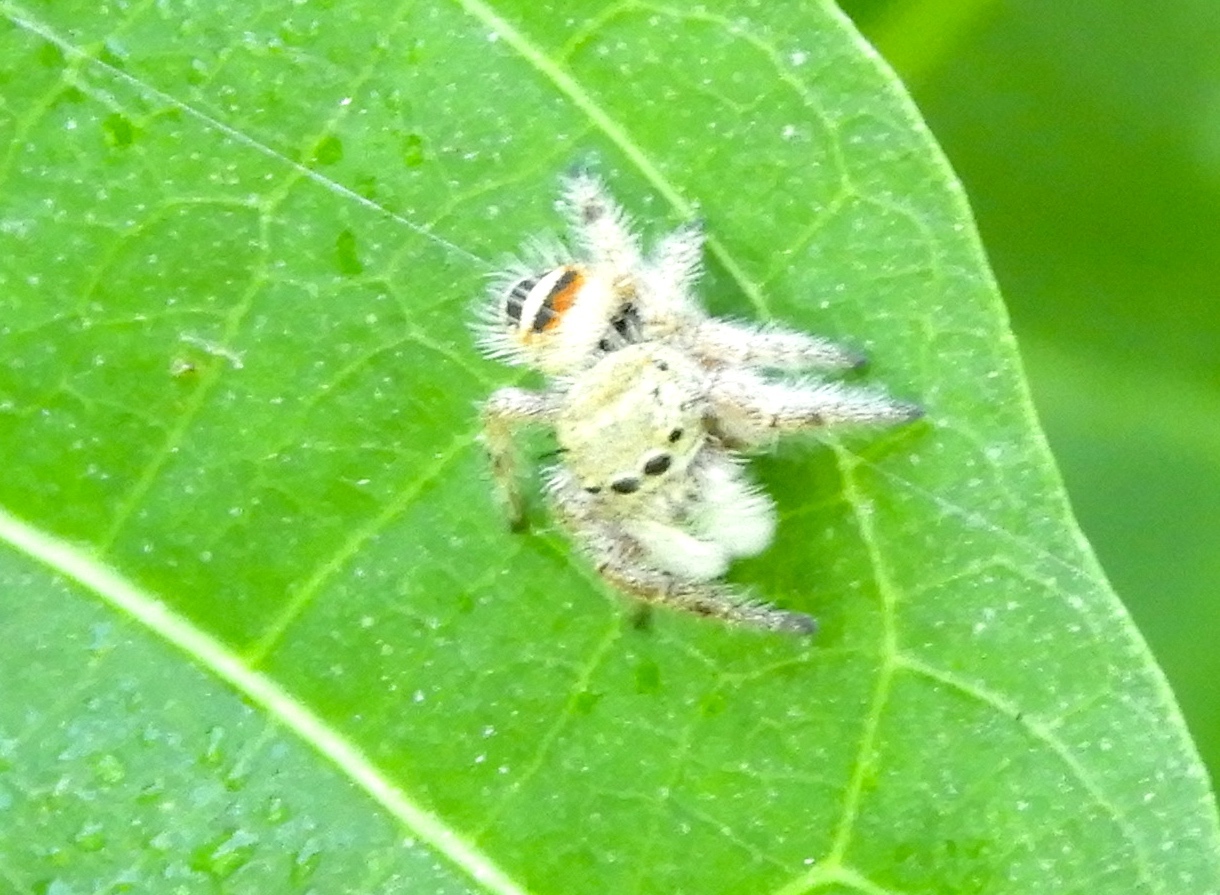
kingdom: Animalia
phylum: Arthropoda
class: Arachnida
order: Araneae
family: Salticidae
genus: Phidippus
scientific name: Phidippus pacosauritus
